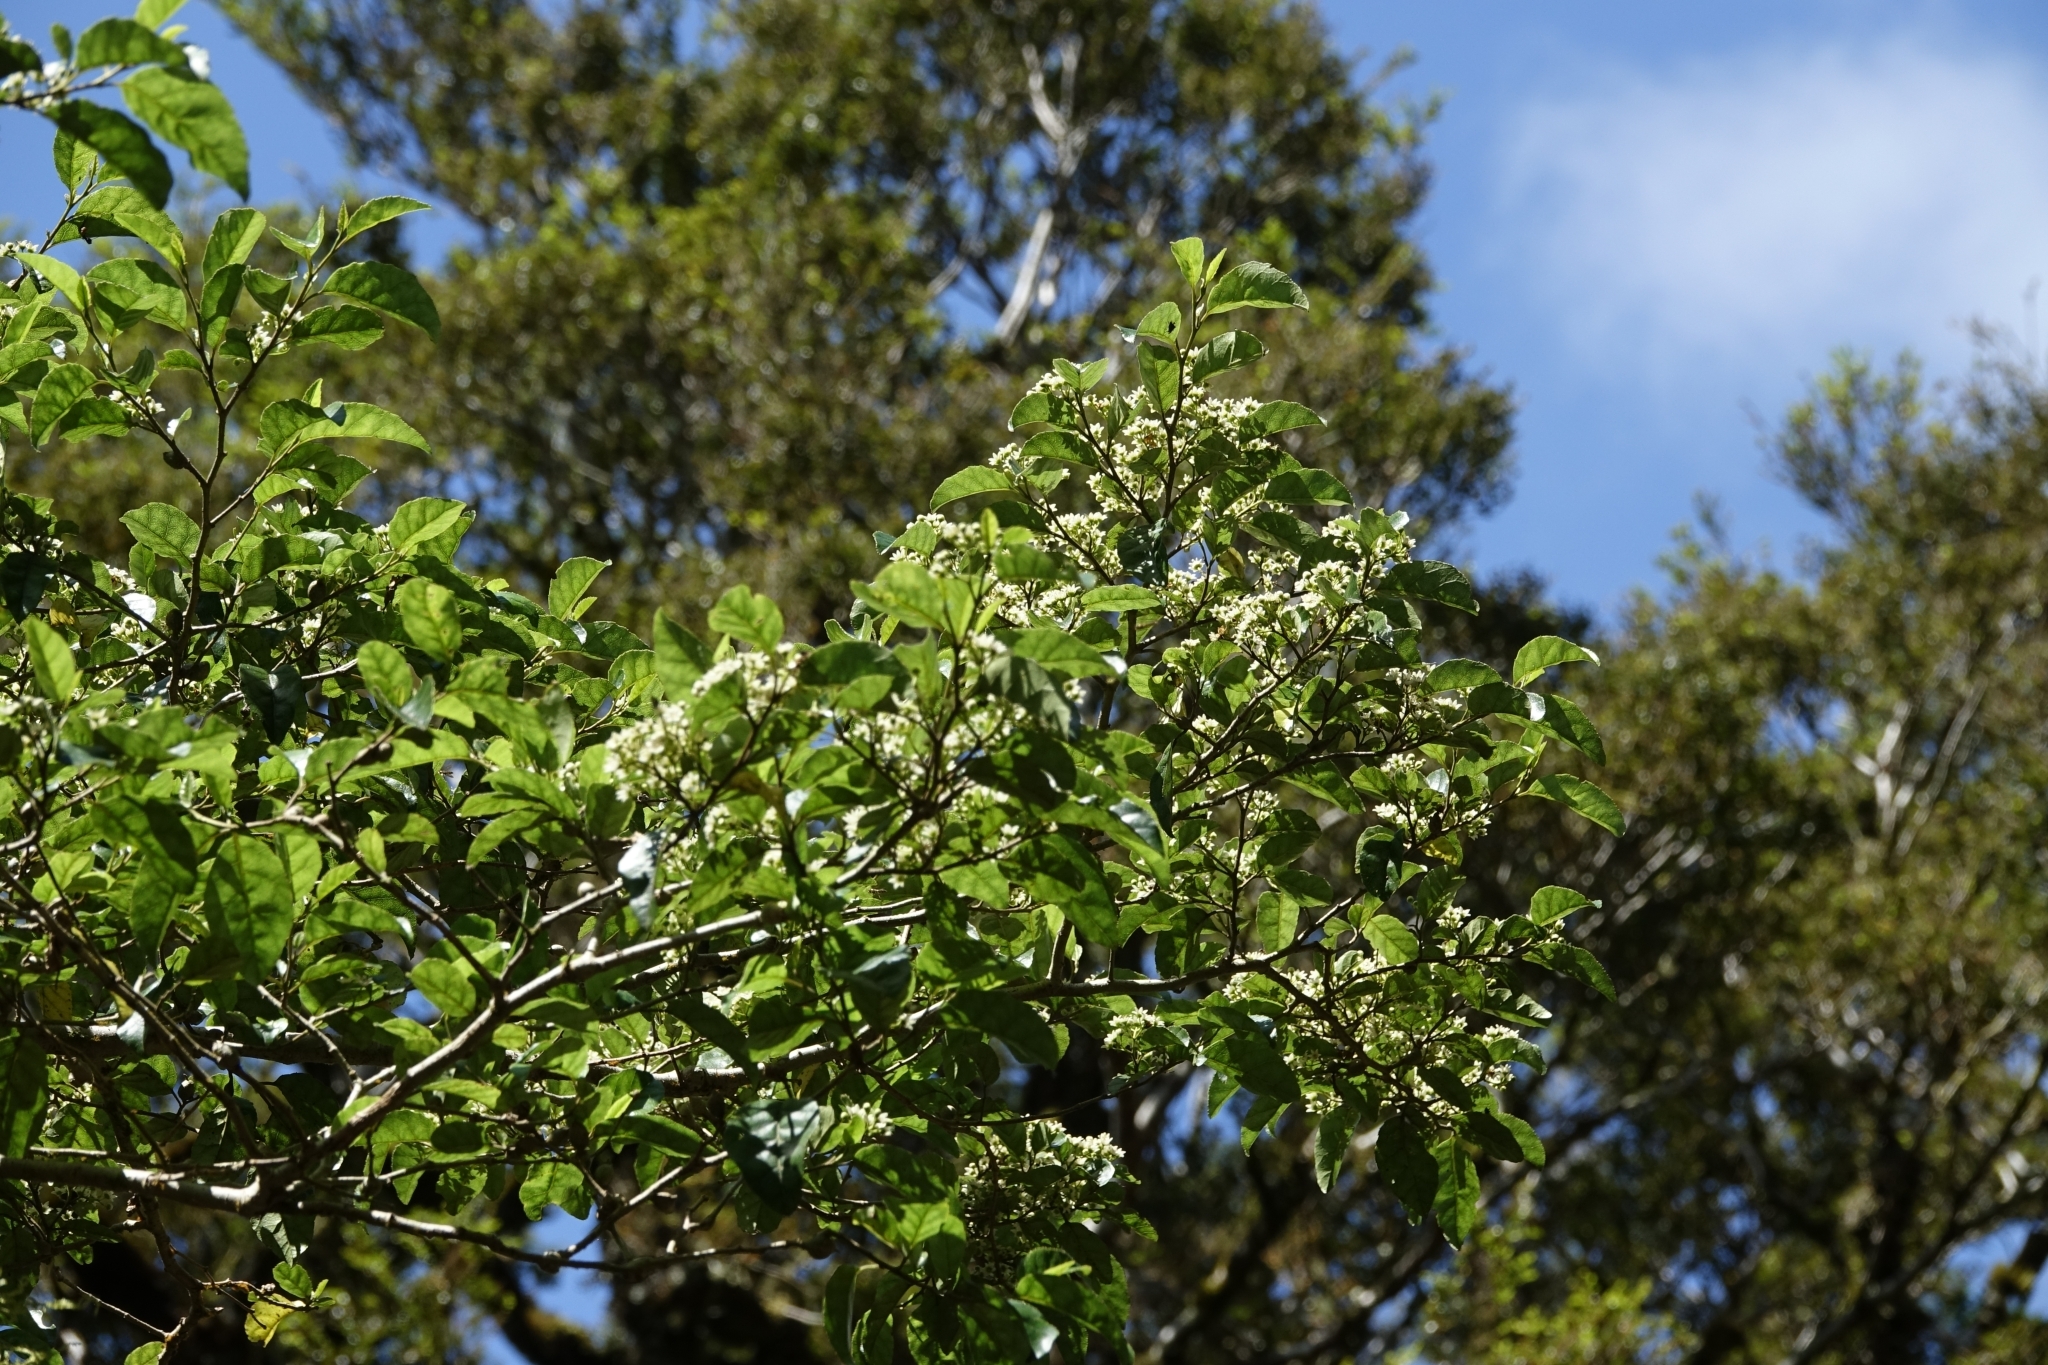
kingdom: Plantae
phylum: Tracheophyta
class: Magnoliopsida
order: Asterales
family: Rousseaceae
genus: Carpodetus
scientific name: Carpodetus serratus
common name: White mapau
